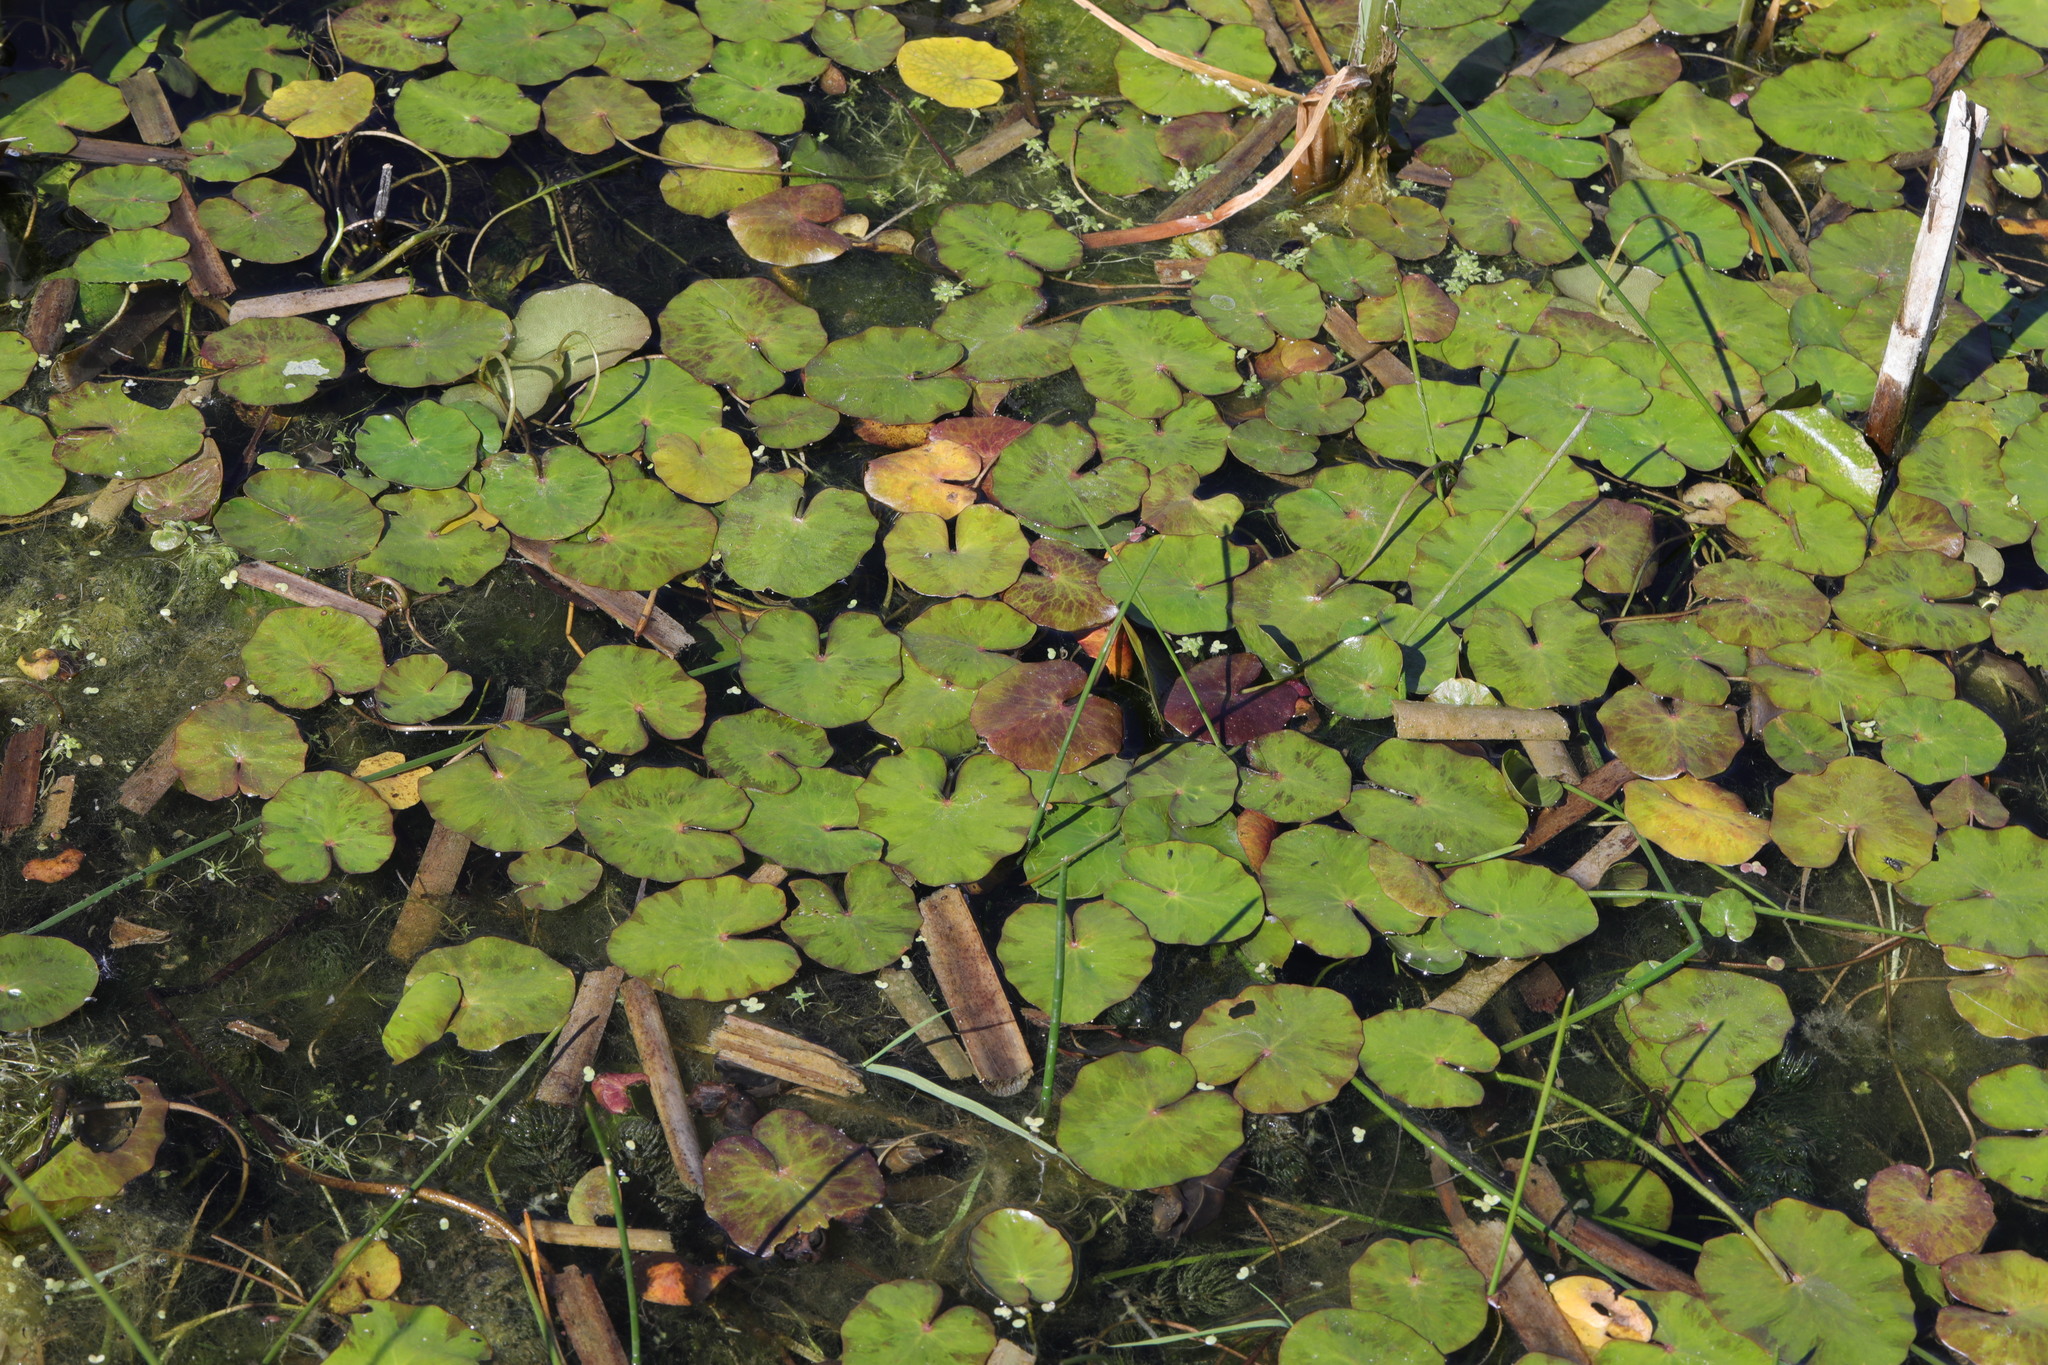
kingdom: Plantae
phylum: Tracheophyta
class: Magnoliopsida
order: Asterales
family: Menyanthaceae
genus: Nymphoides
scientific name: Nymphoides peltata
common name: Fringed water-lily
